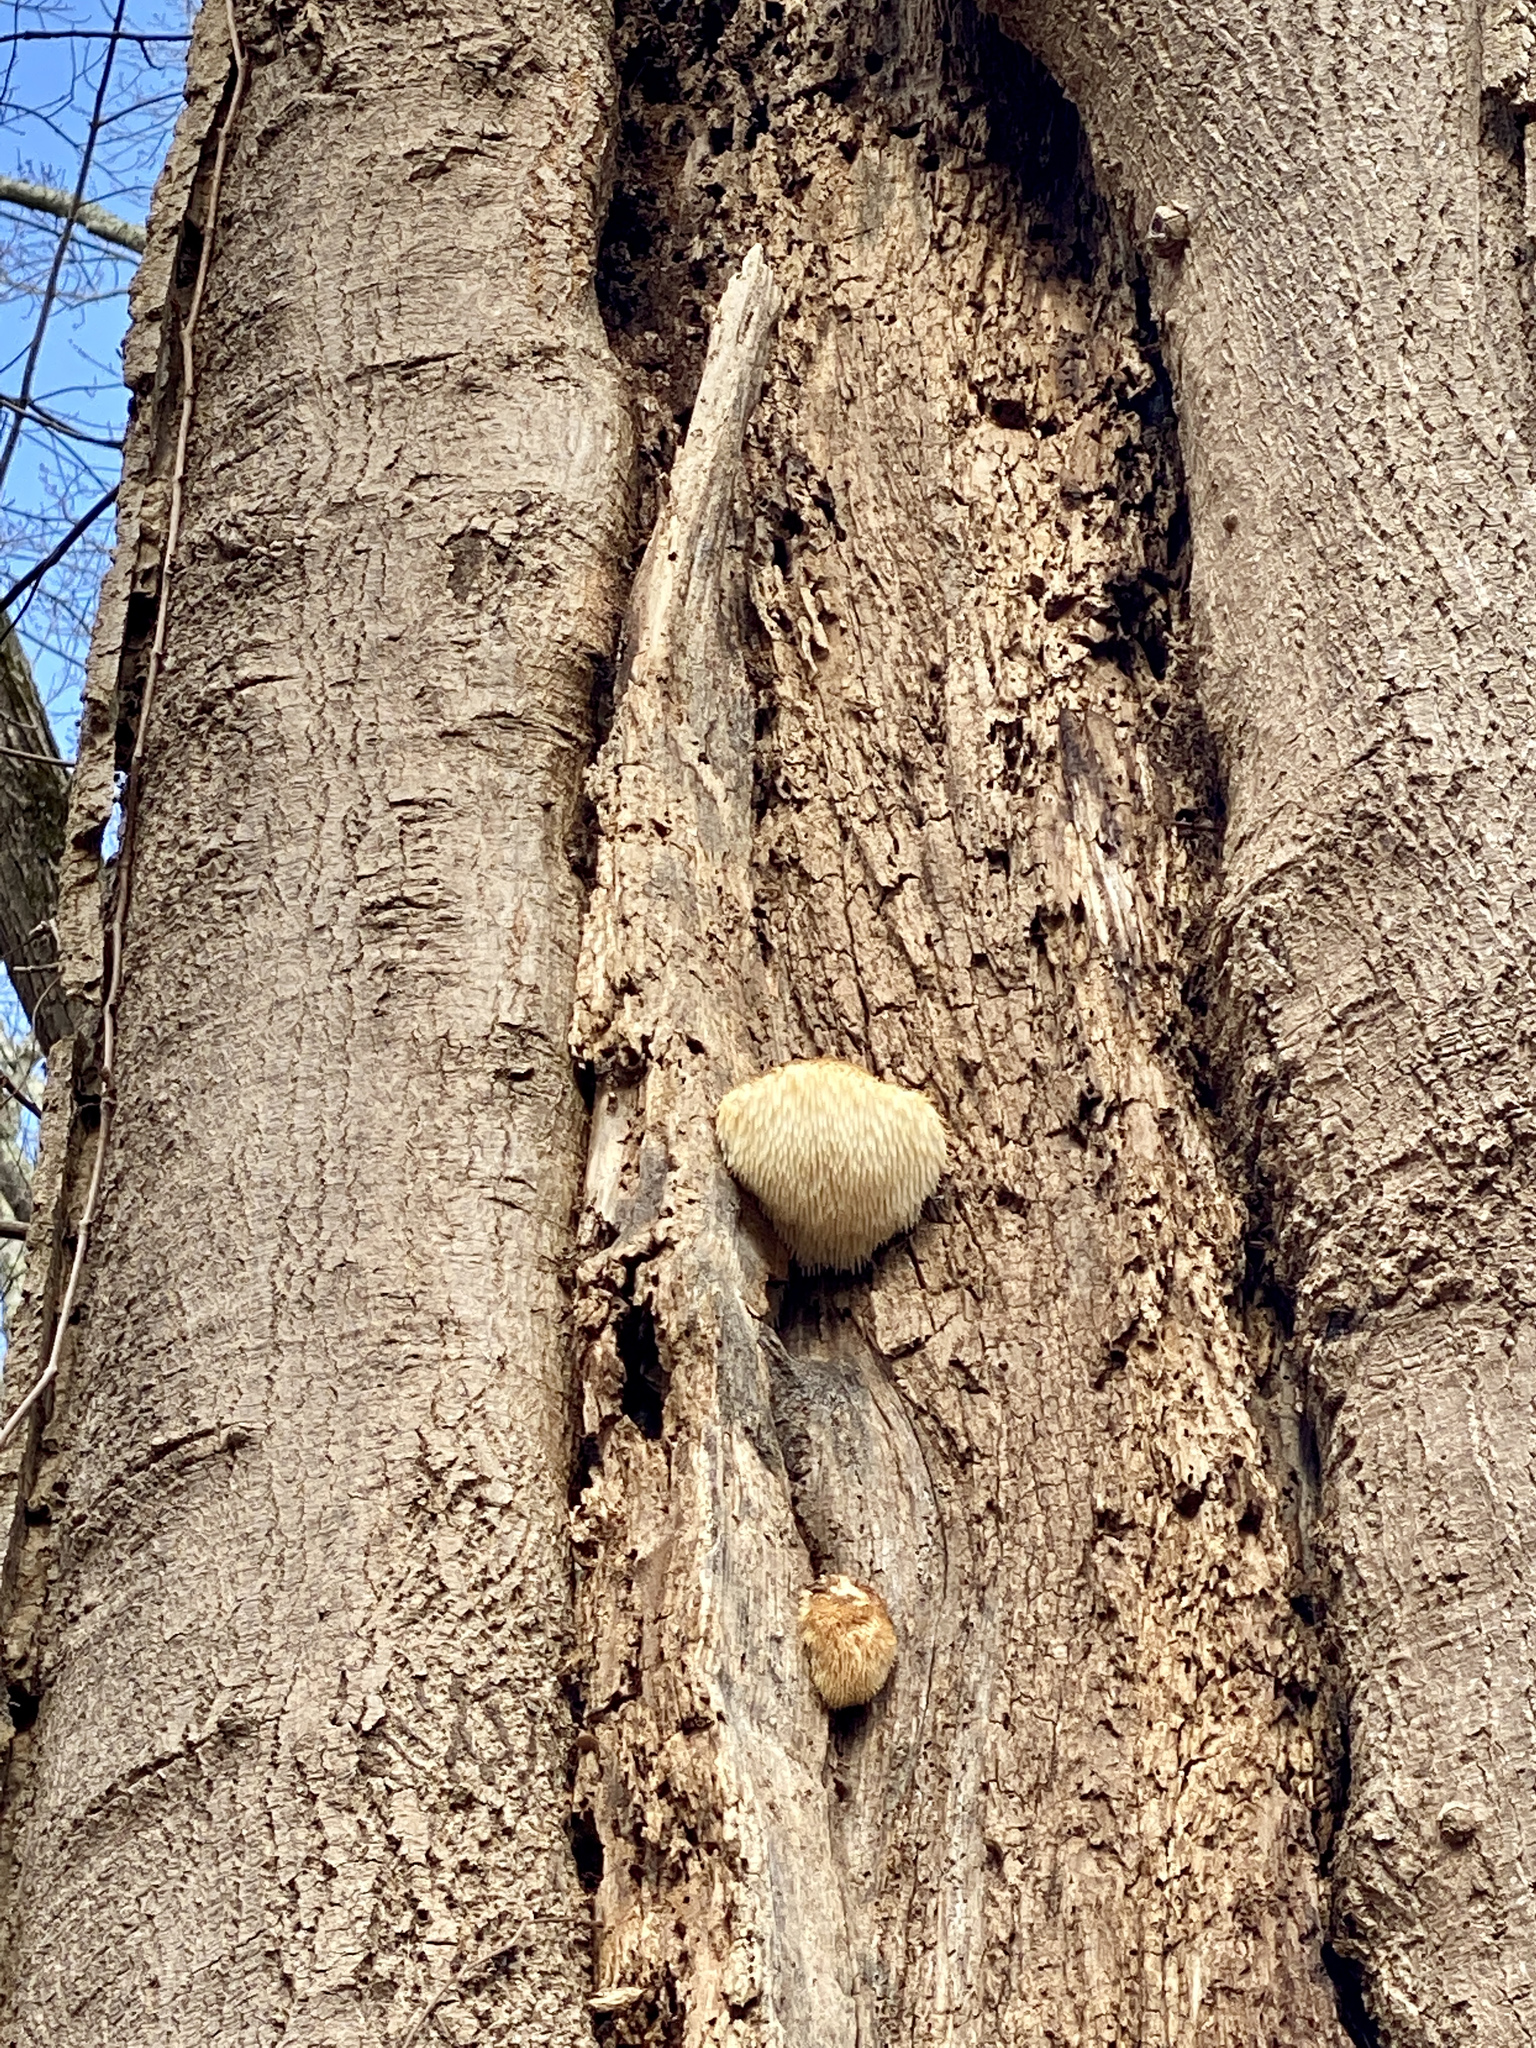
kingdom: Fungi
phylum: Basidiomycota
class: Agaricomycetes
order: Russulales
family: Hericiaceae
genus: Hericium
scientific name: Hericium erinaceus
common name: Bearded tooth
